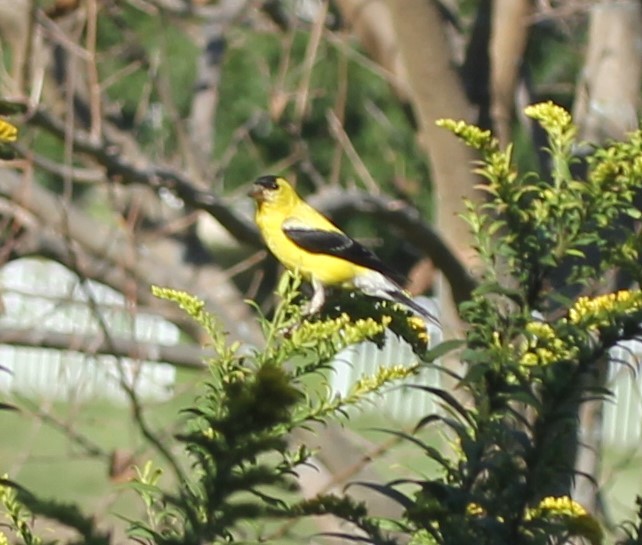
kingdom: Animalia
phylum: Chordata
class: Aves
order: Passeriformes
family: Fringillidae
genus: Spinus
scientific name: Spinus tristis
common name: American goldfinch
